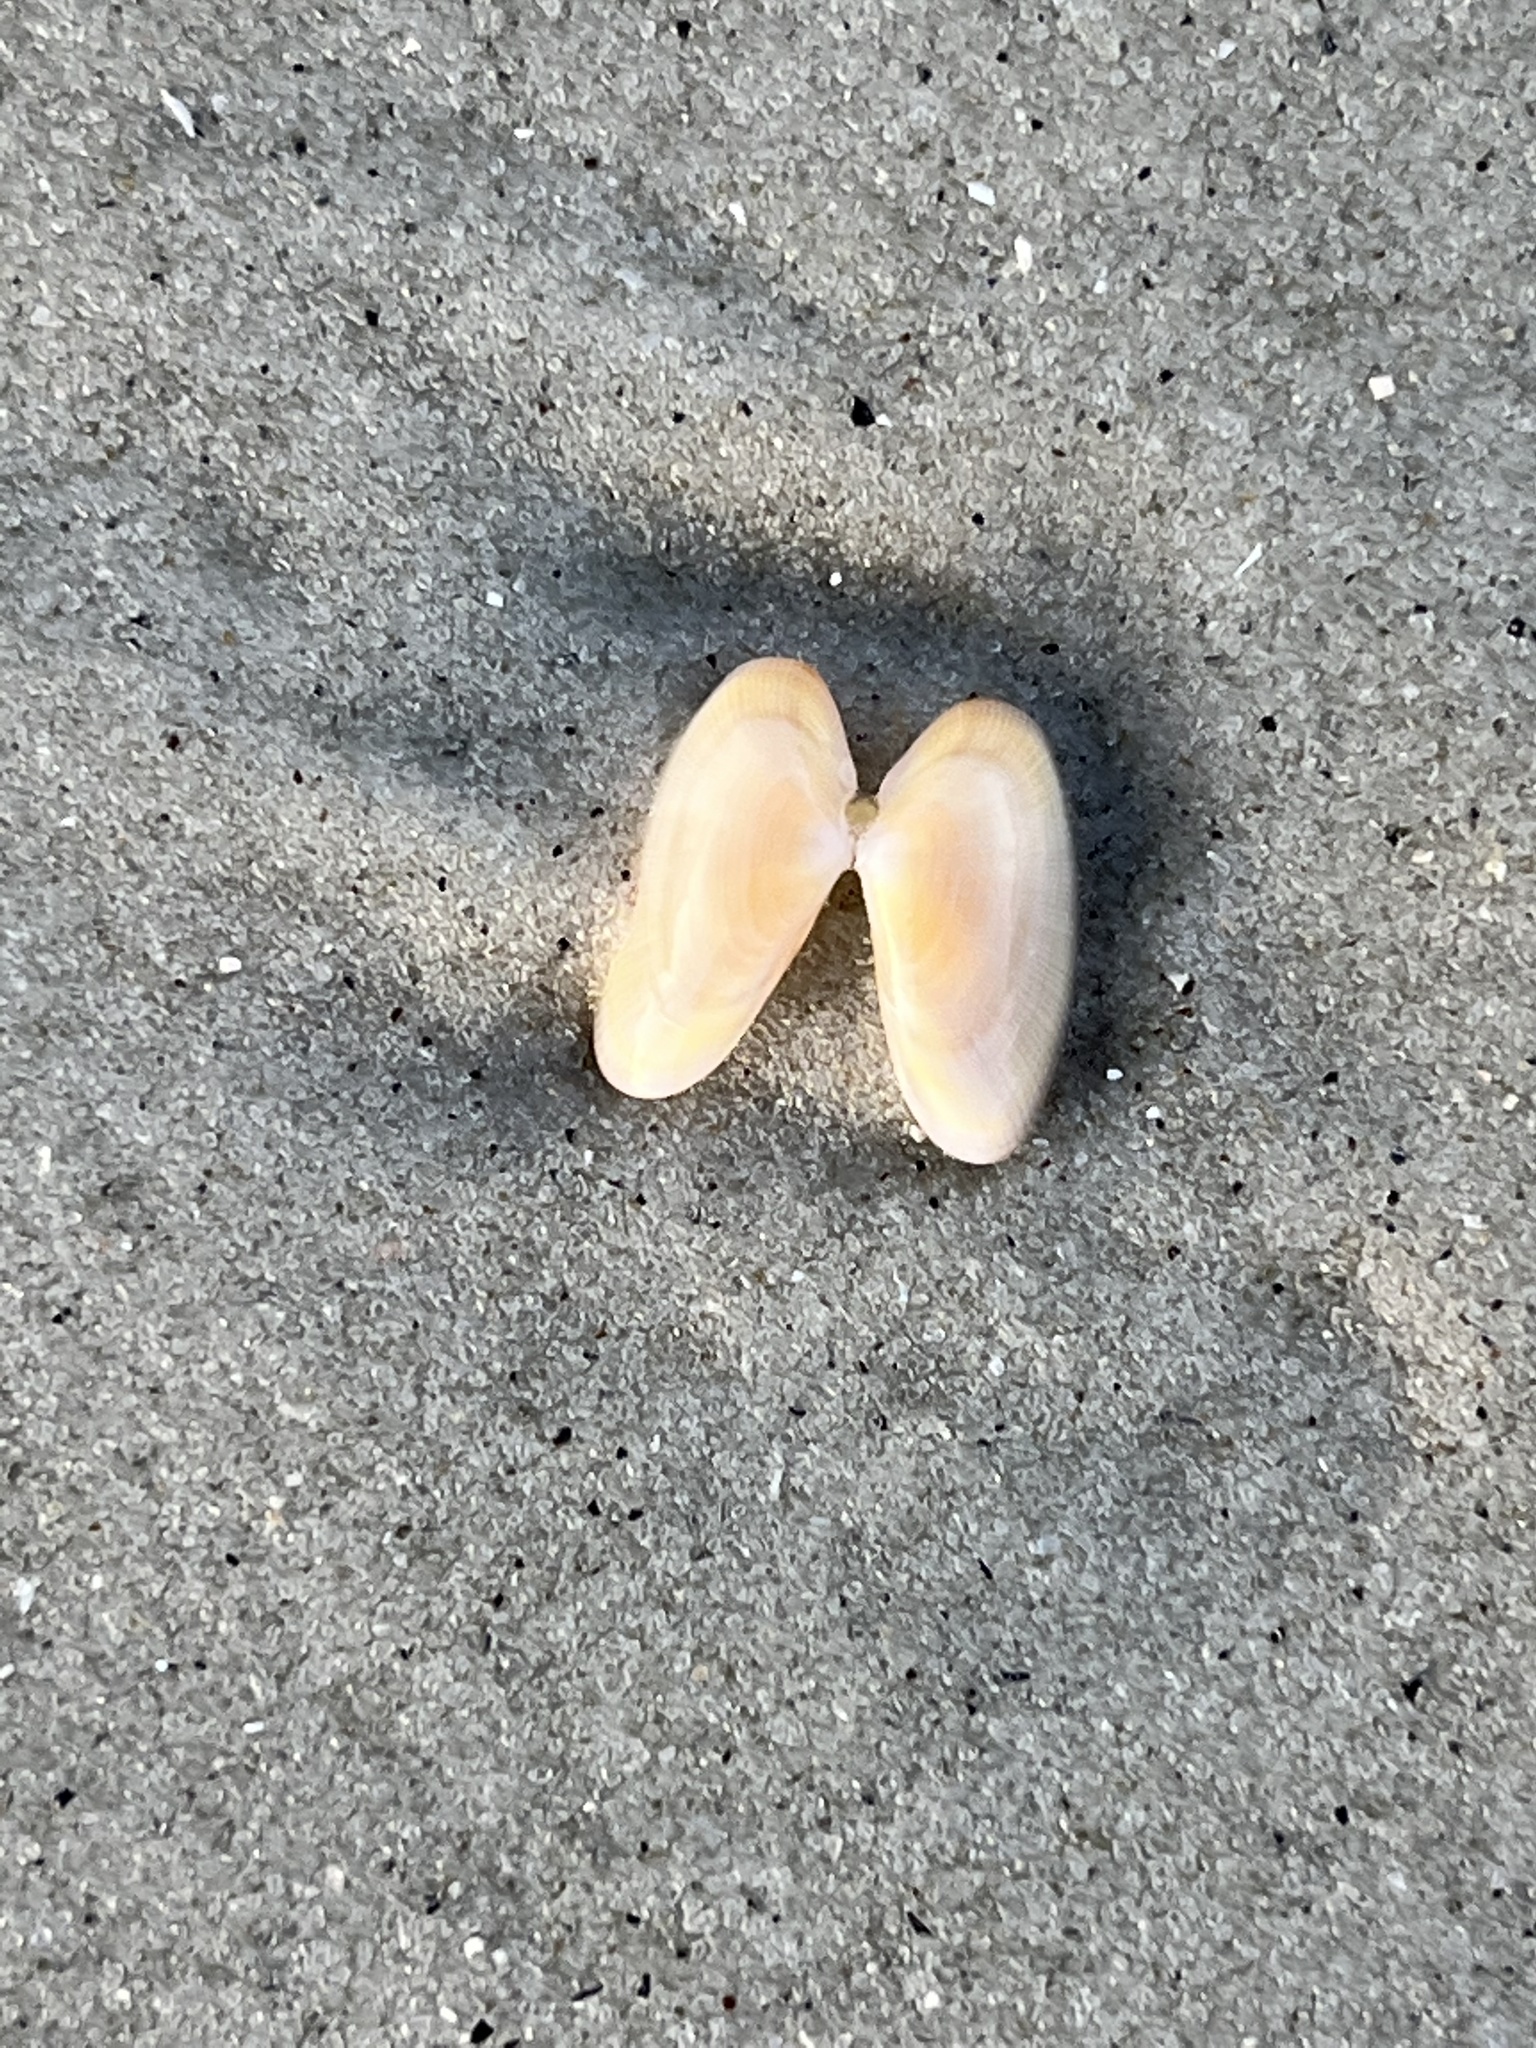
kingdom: Animalia
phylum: Mollusca
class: Bivalvia
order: Cardiida
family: Donacidae
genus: Donax
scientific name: Donax variabilis
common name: Butterfly shell
